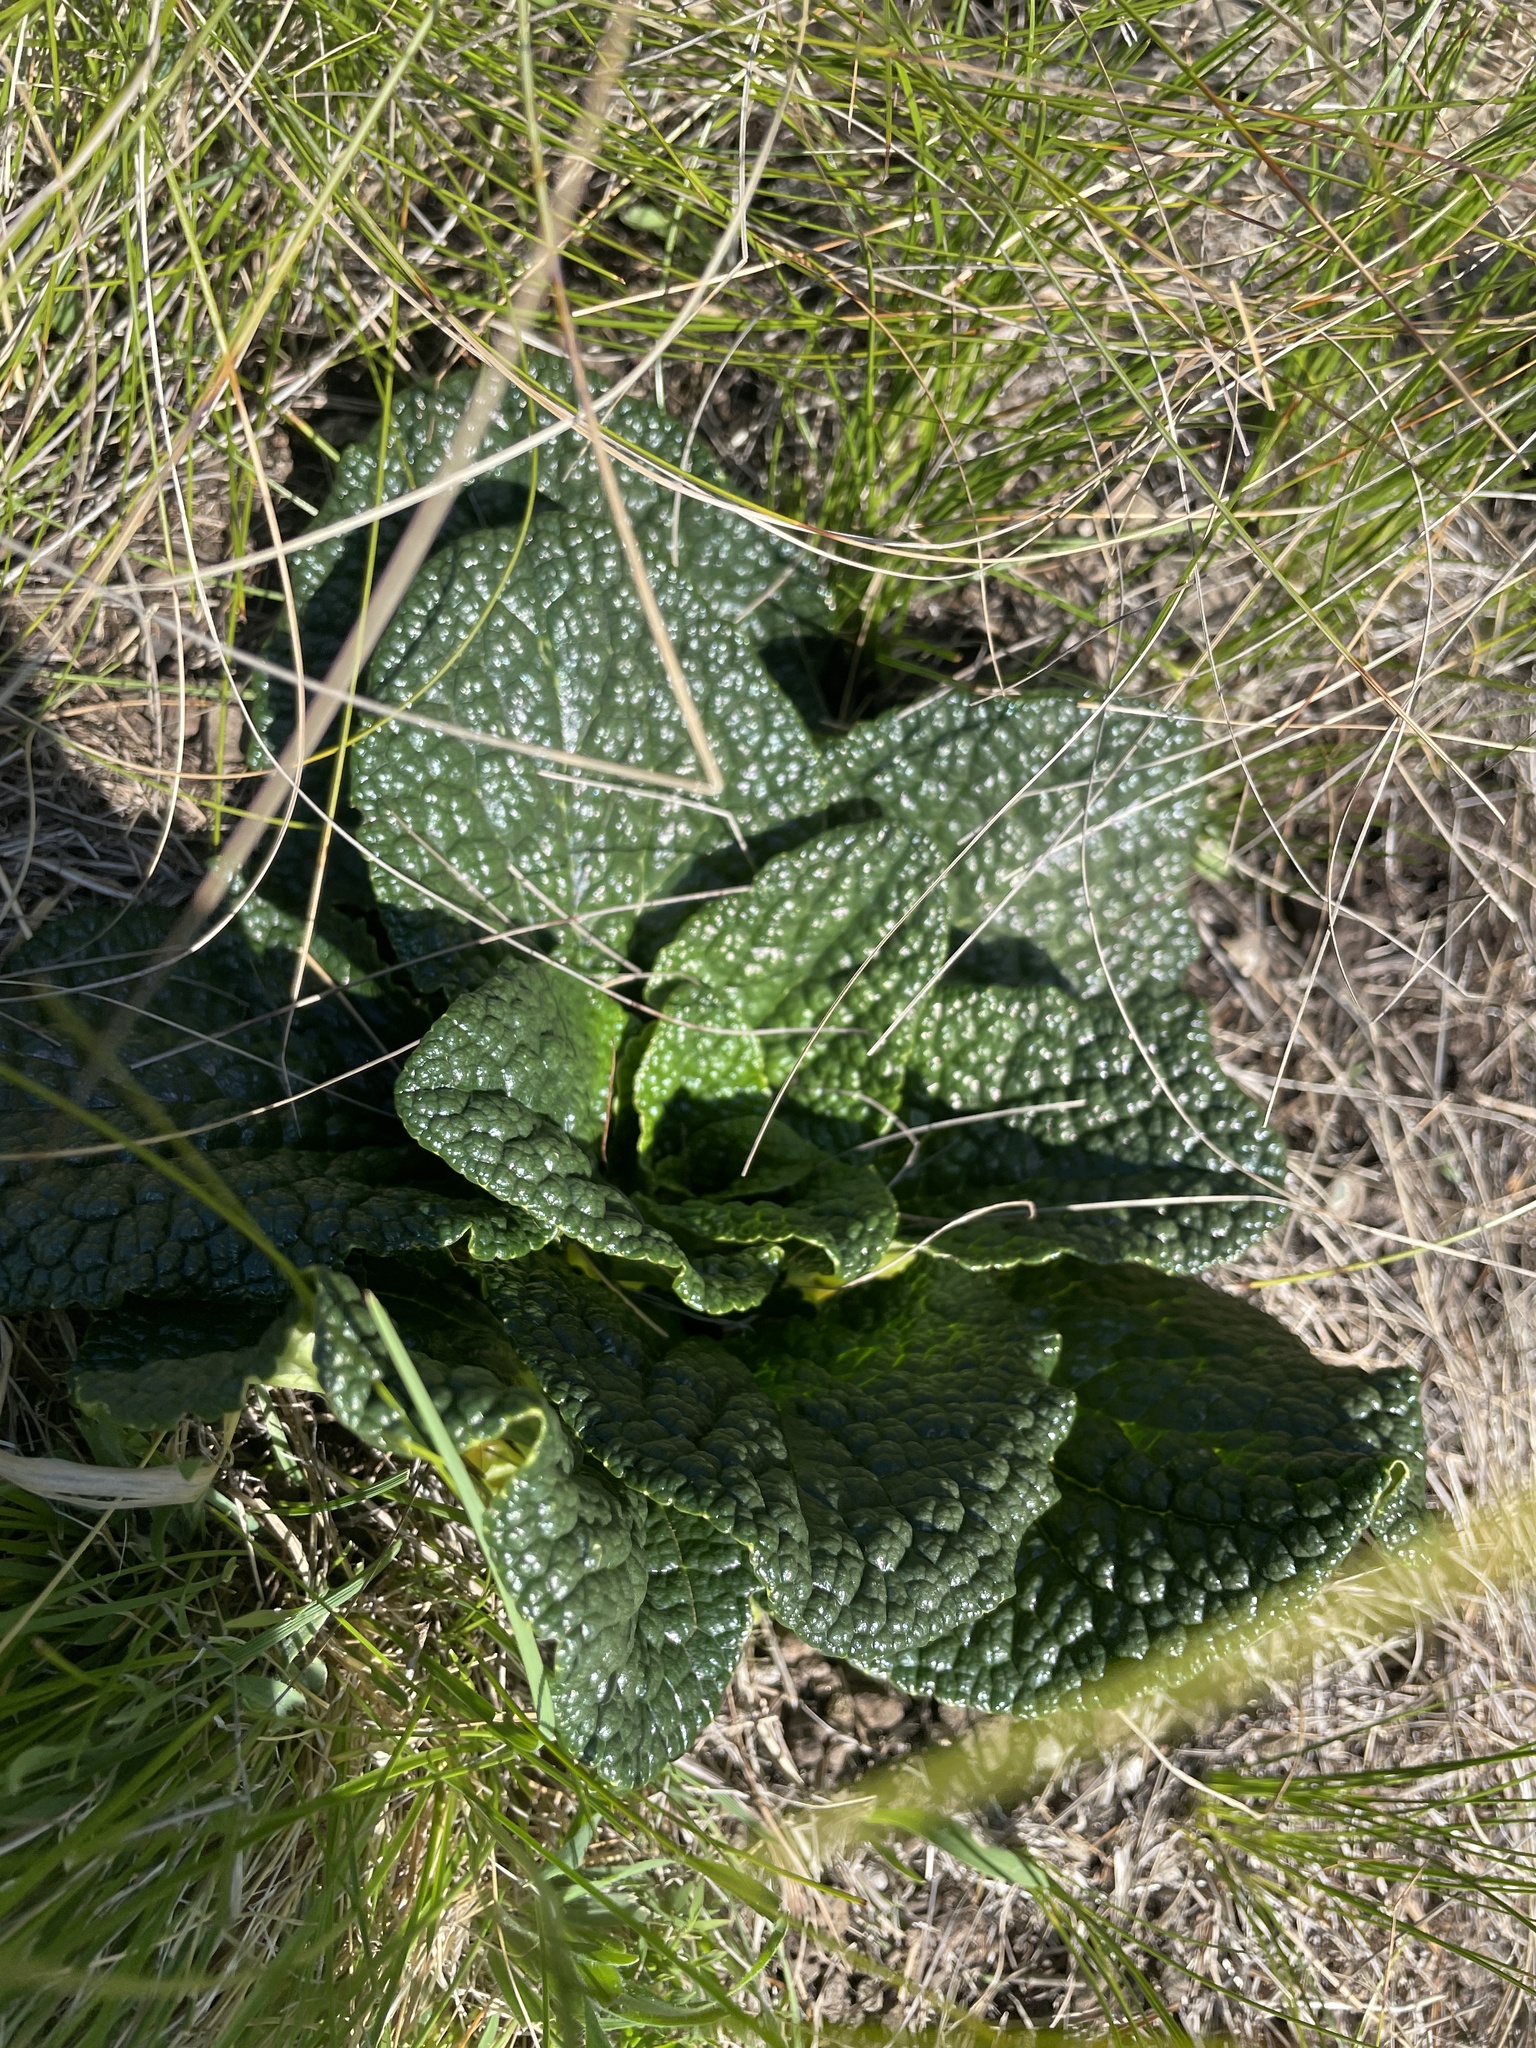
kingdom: Plantae
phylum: Tracheophyta
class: Magnoliopsida
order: Malpighiales
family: Achariaceae
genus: Guthriea
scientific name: Guthriea capensis
